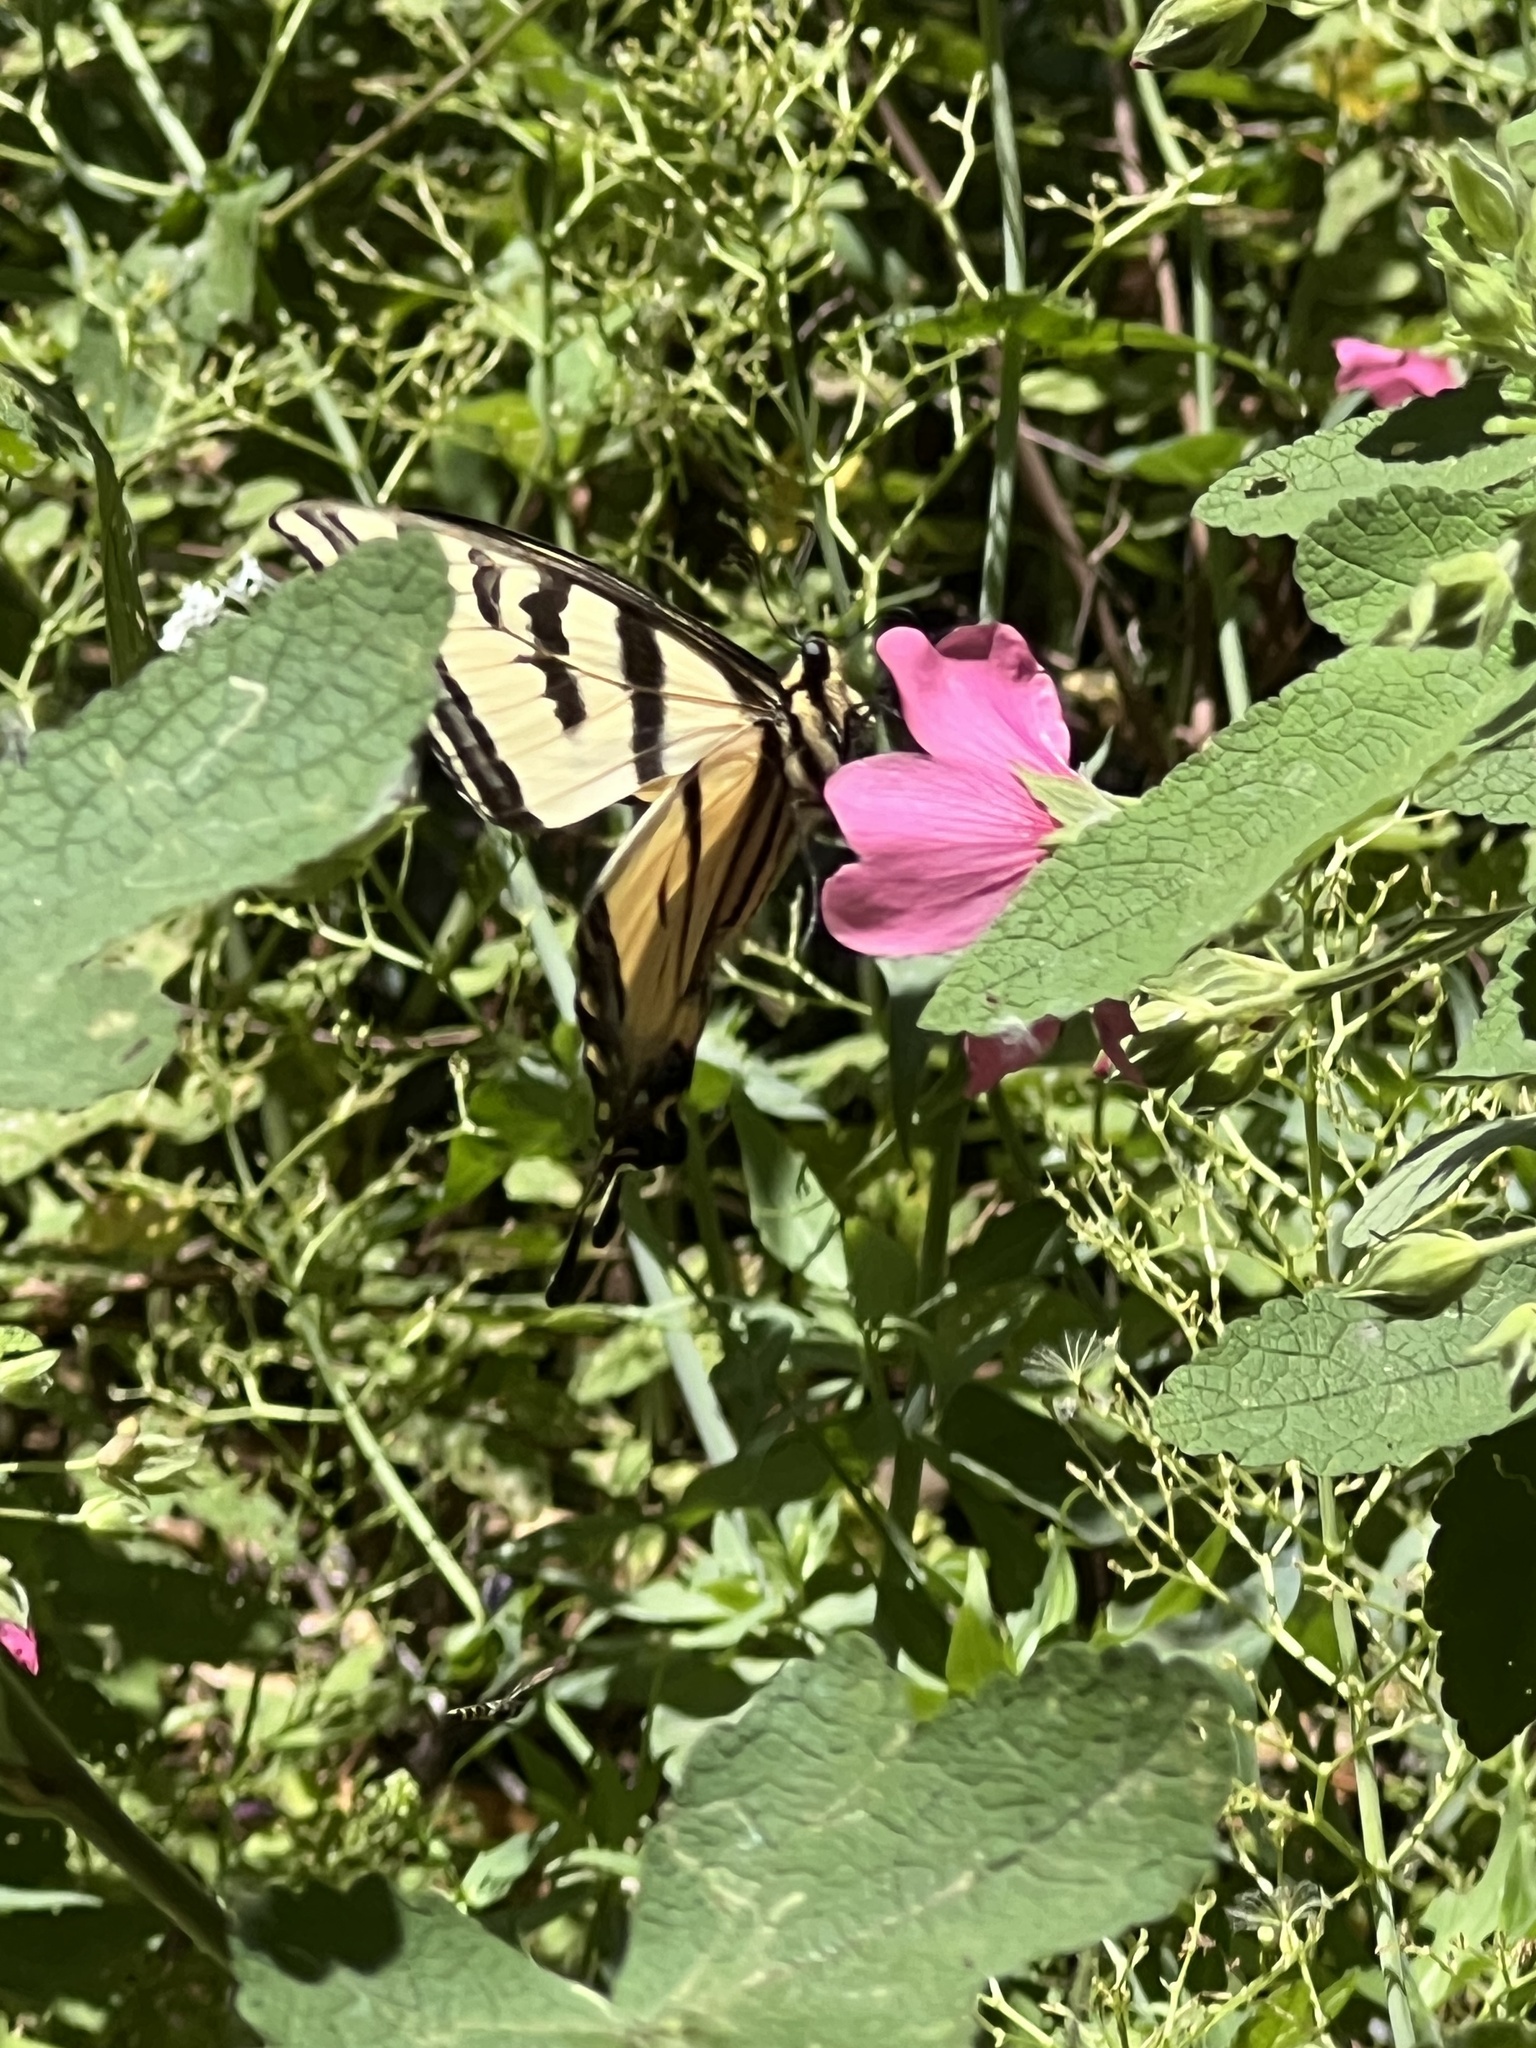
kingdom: Animalia
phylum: Arthropoda
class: Insecta
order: Lepidoptera
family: Papilionidae
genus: Papilio
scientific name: Papilio rutulus
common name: Western tiger swallowtail
